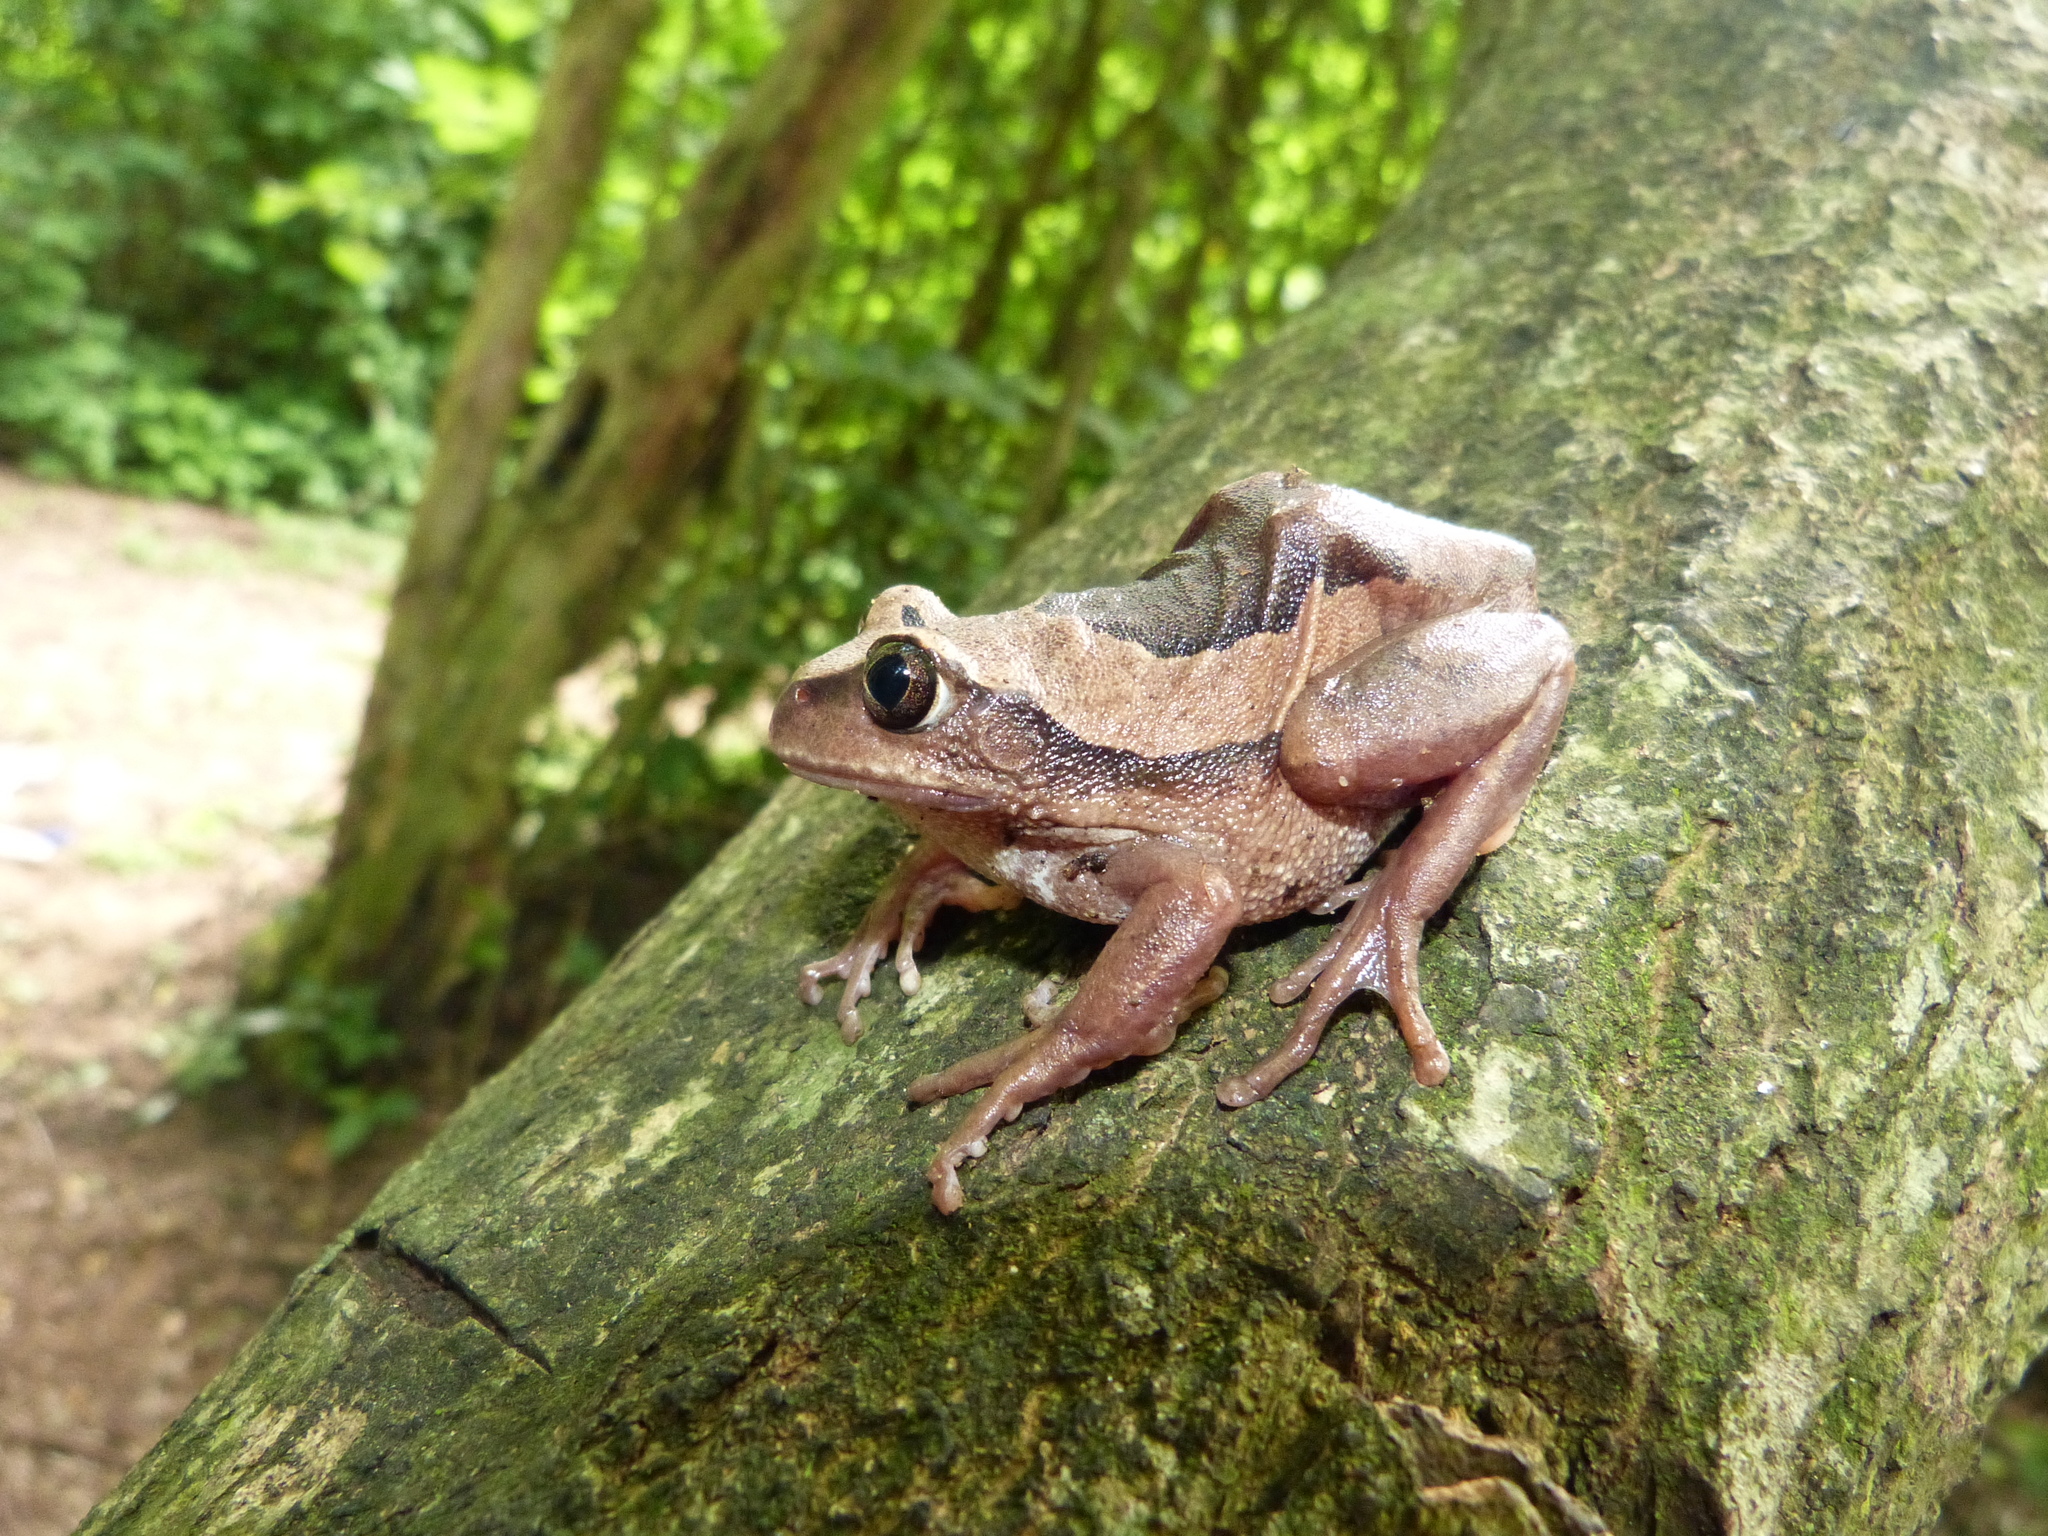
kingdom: Animalia
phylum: Chordata
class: Amphibia
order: Anura
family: Arthroleptidae
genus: Leptopelis
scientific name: Leptopelis mossambicus
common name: Mozambique tree frog
